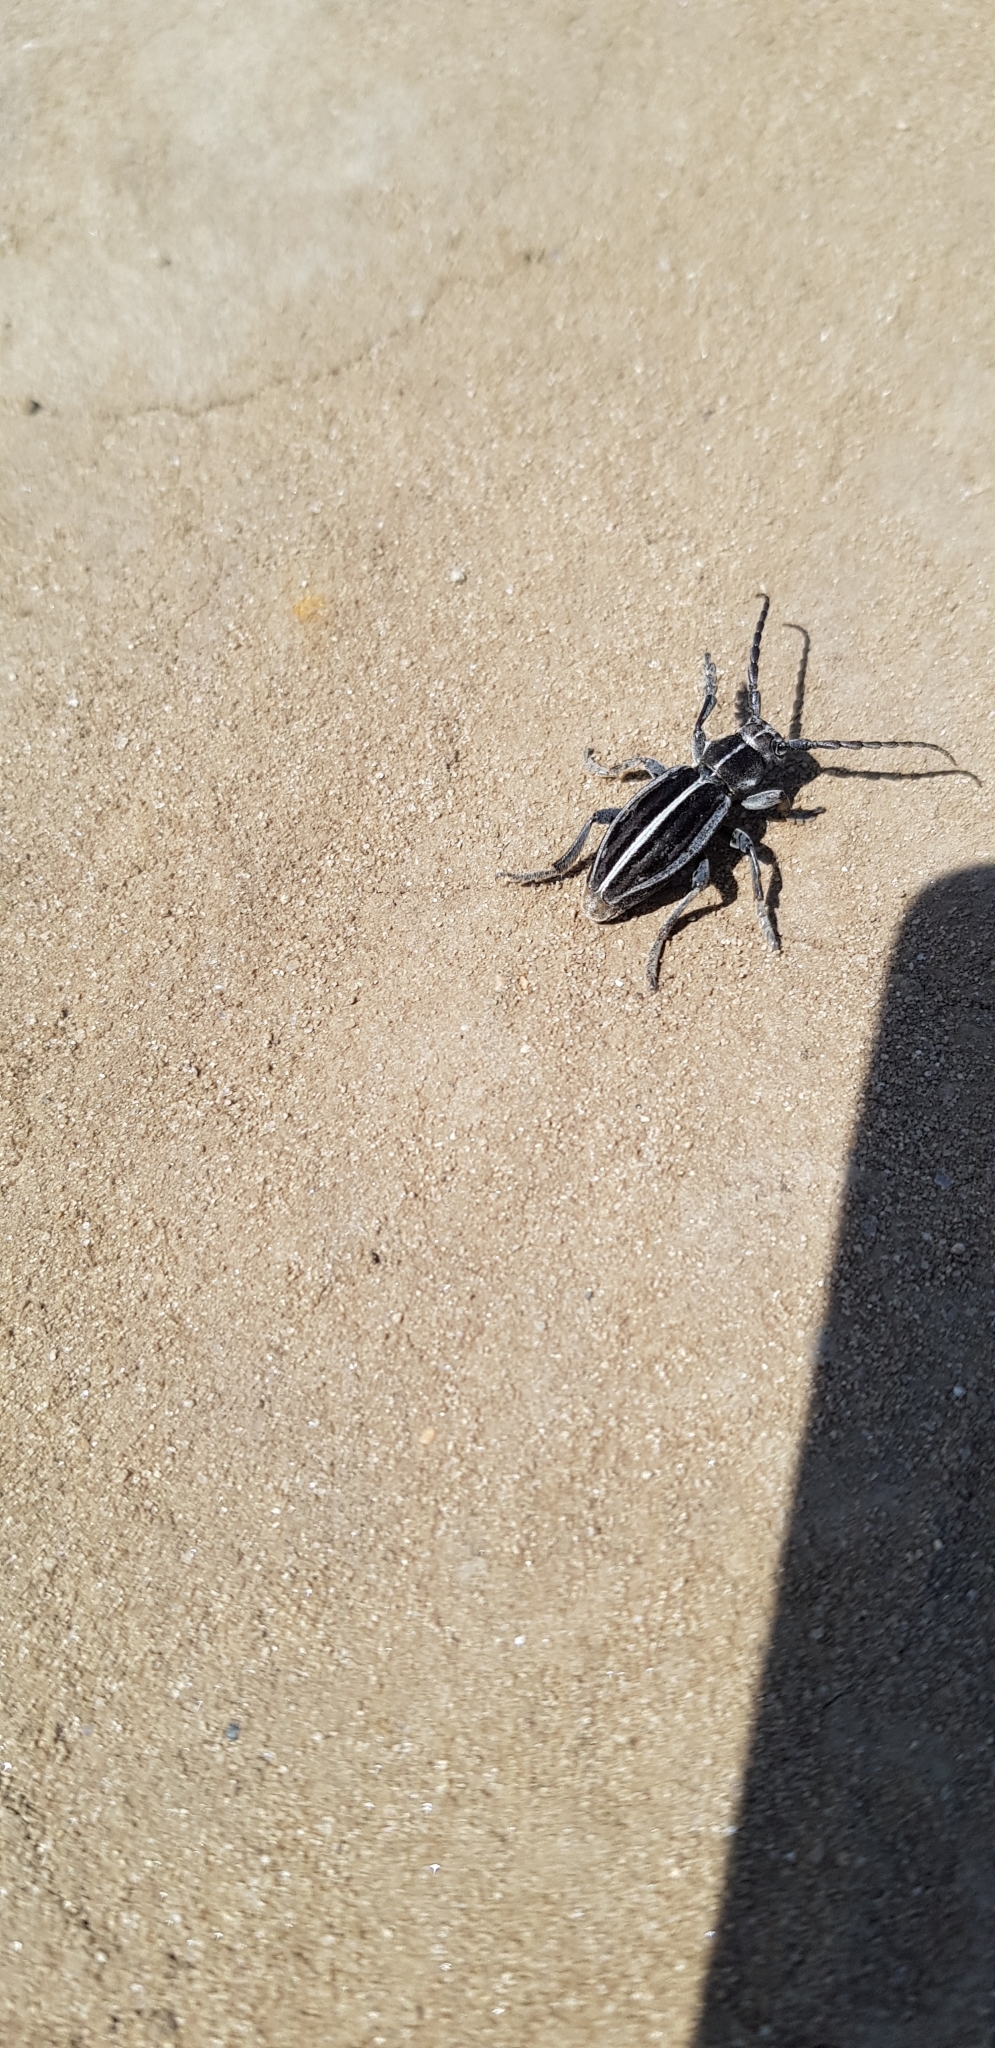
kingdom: Animalia
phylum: Arthropoda
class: Insecta
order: Coleoptera
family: Cerambycidae
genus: Dorcadion
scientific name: Dorcadion holosericeum
